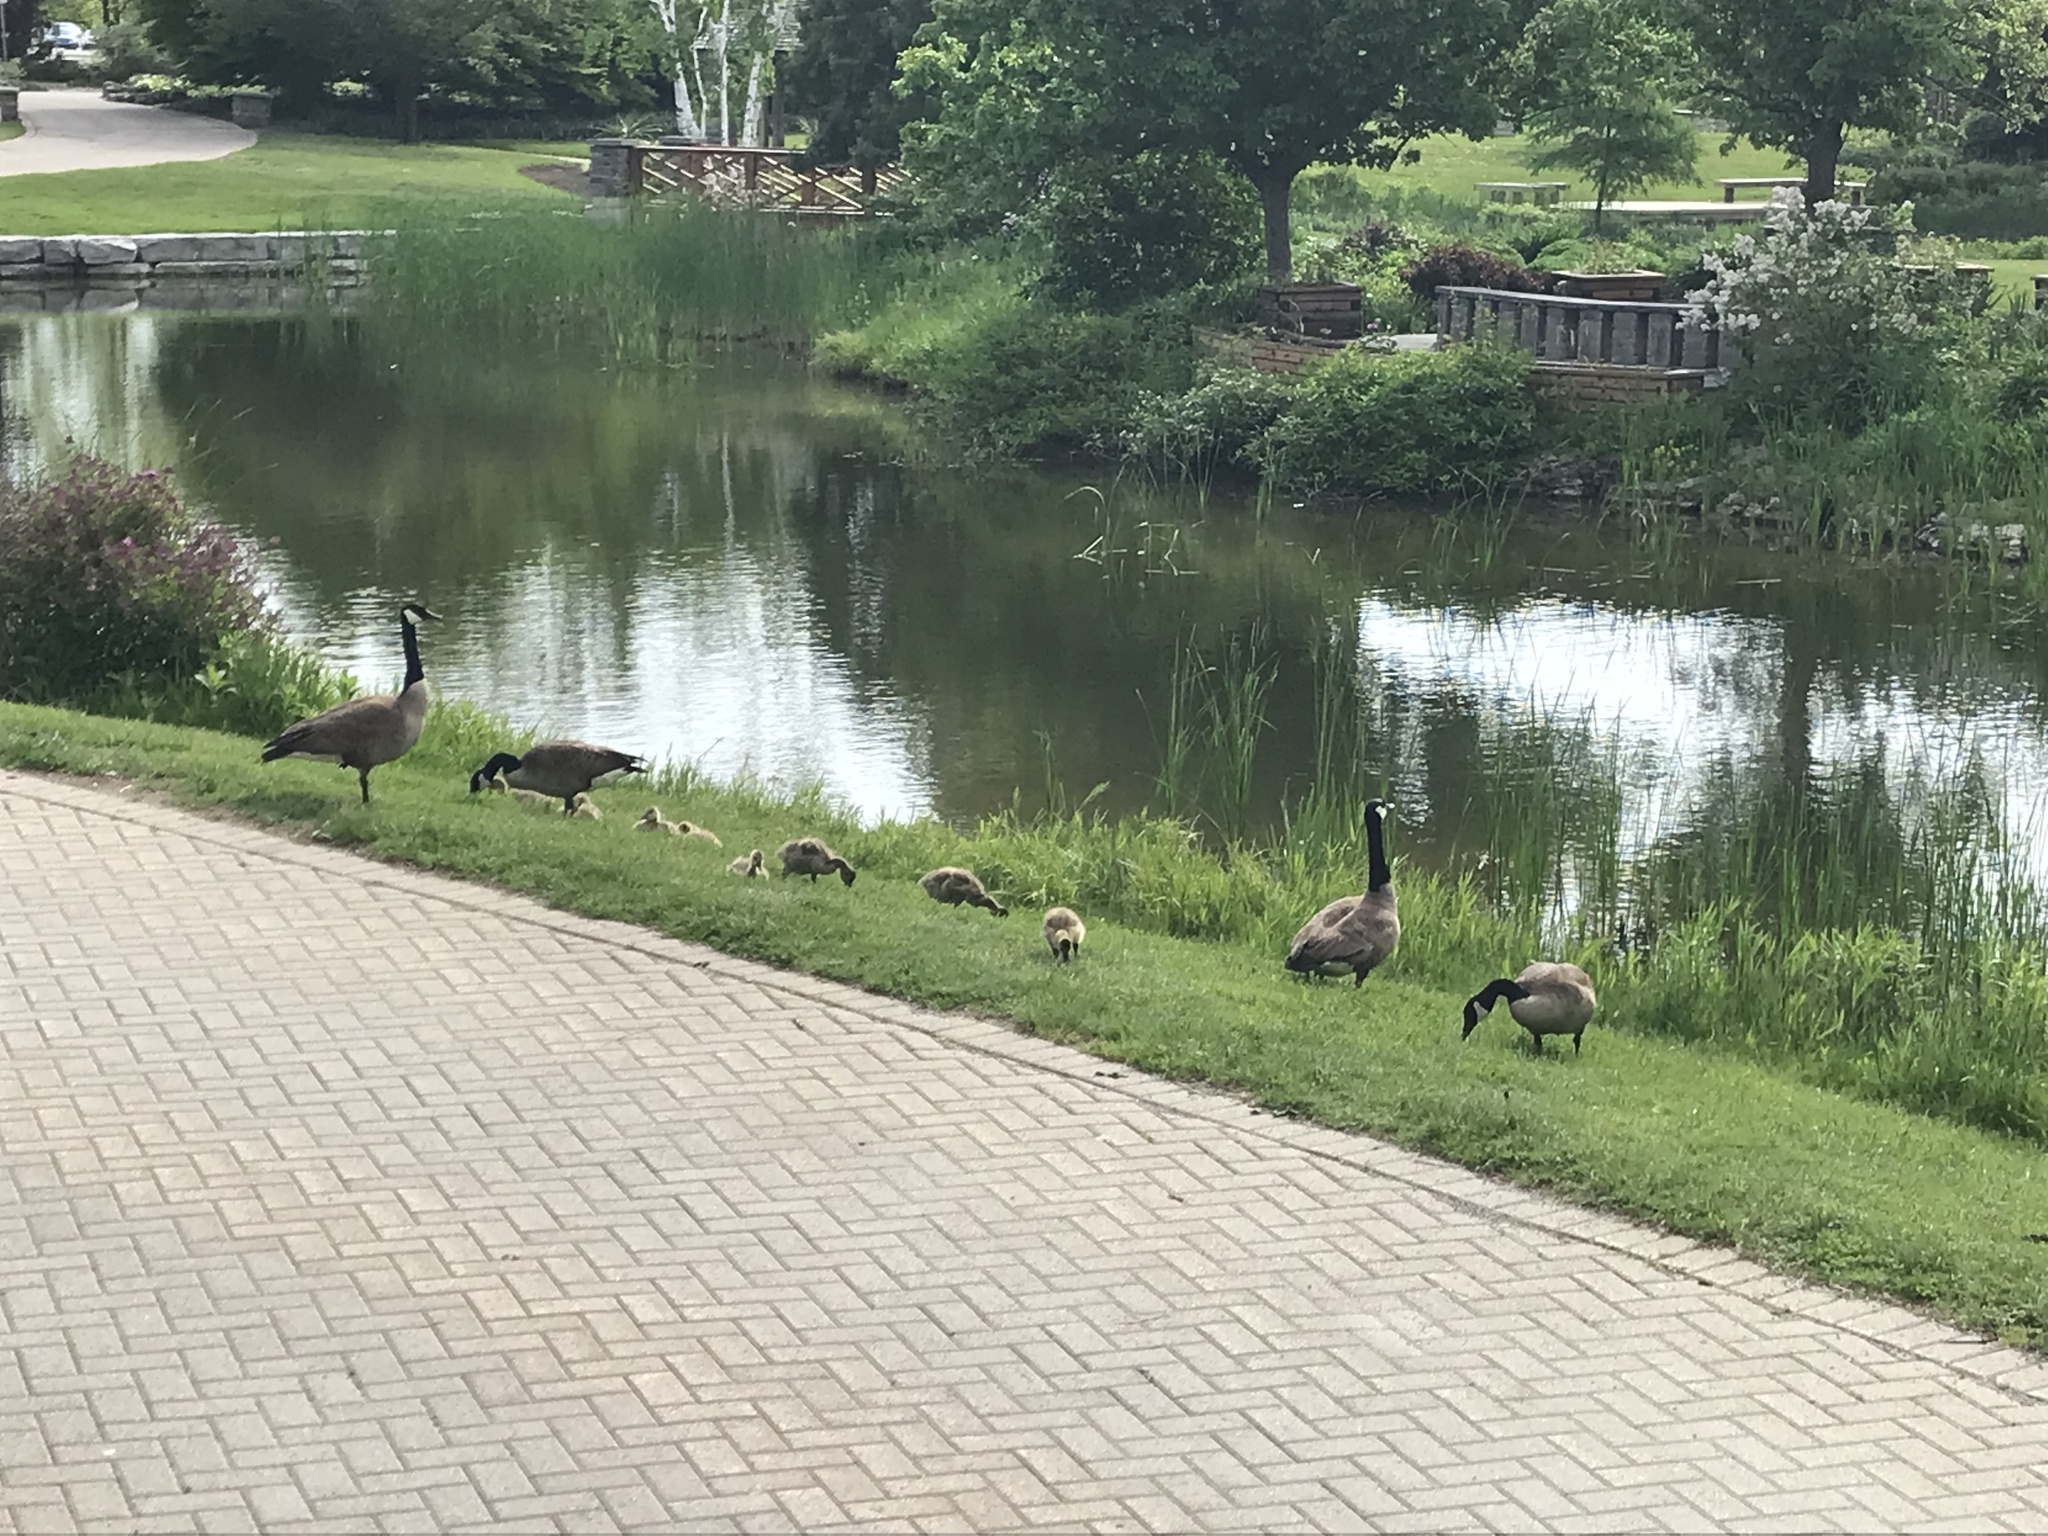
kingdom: Animalia
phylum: Chordata
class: Aves
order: Anseriformes
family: Anatidae
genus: Branta
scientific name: Branta canadensis
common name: Canada goose
